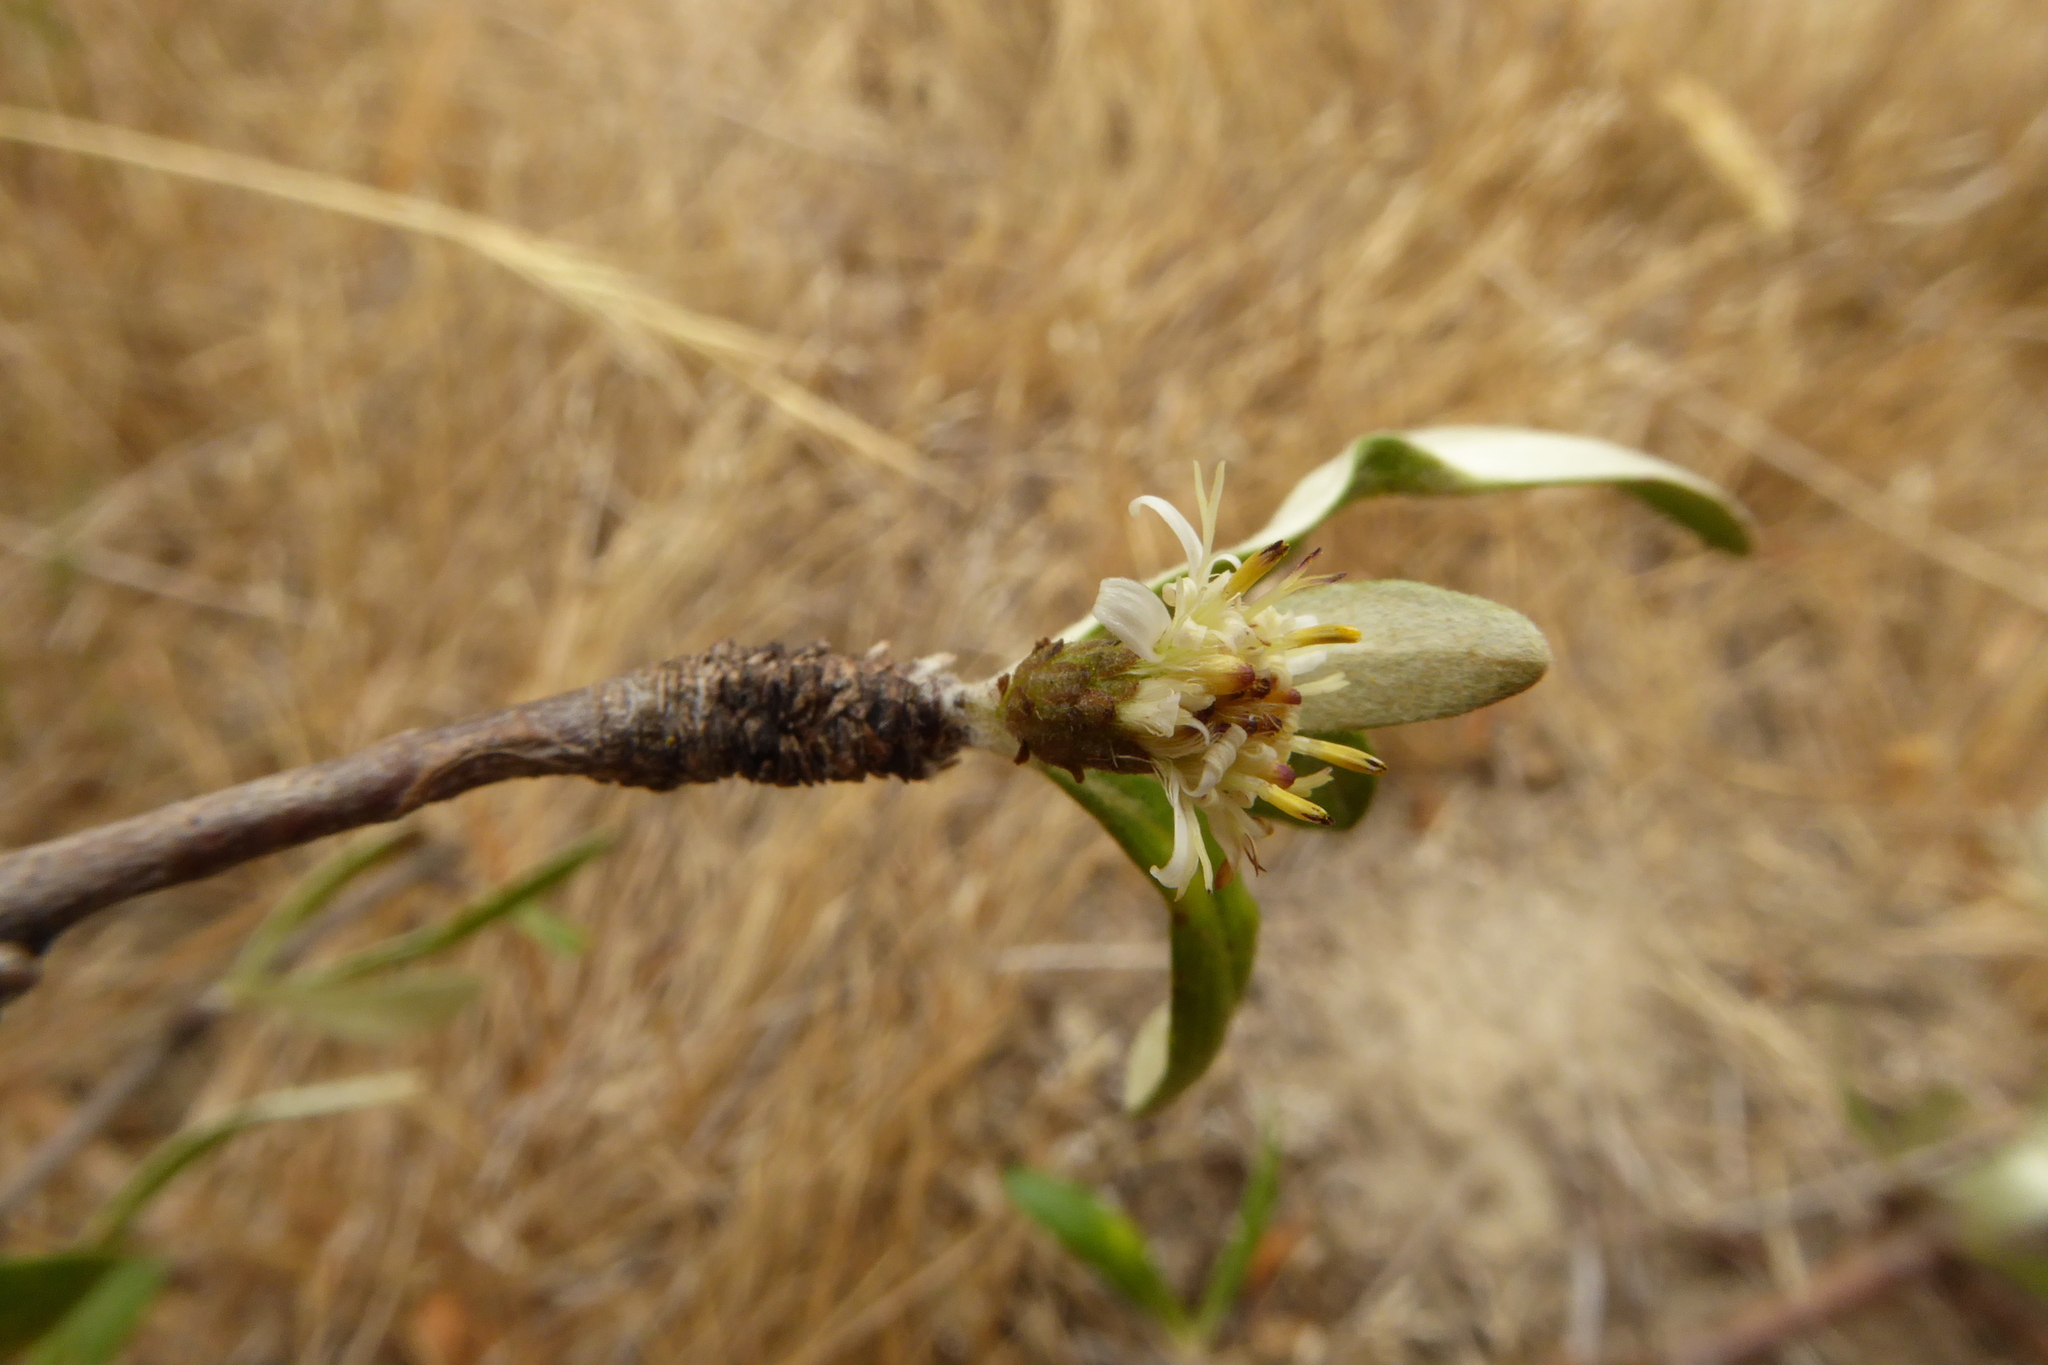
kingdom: Plantae
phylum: Tracheophyta
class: Magnoliopsida
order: Asterales
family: Asteraceae
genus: Olearia
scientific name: Olearia odorata
